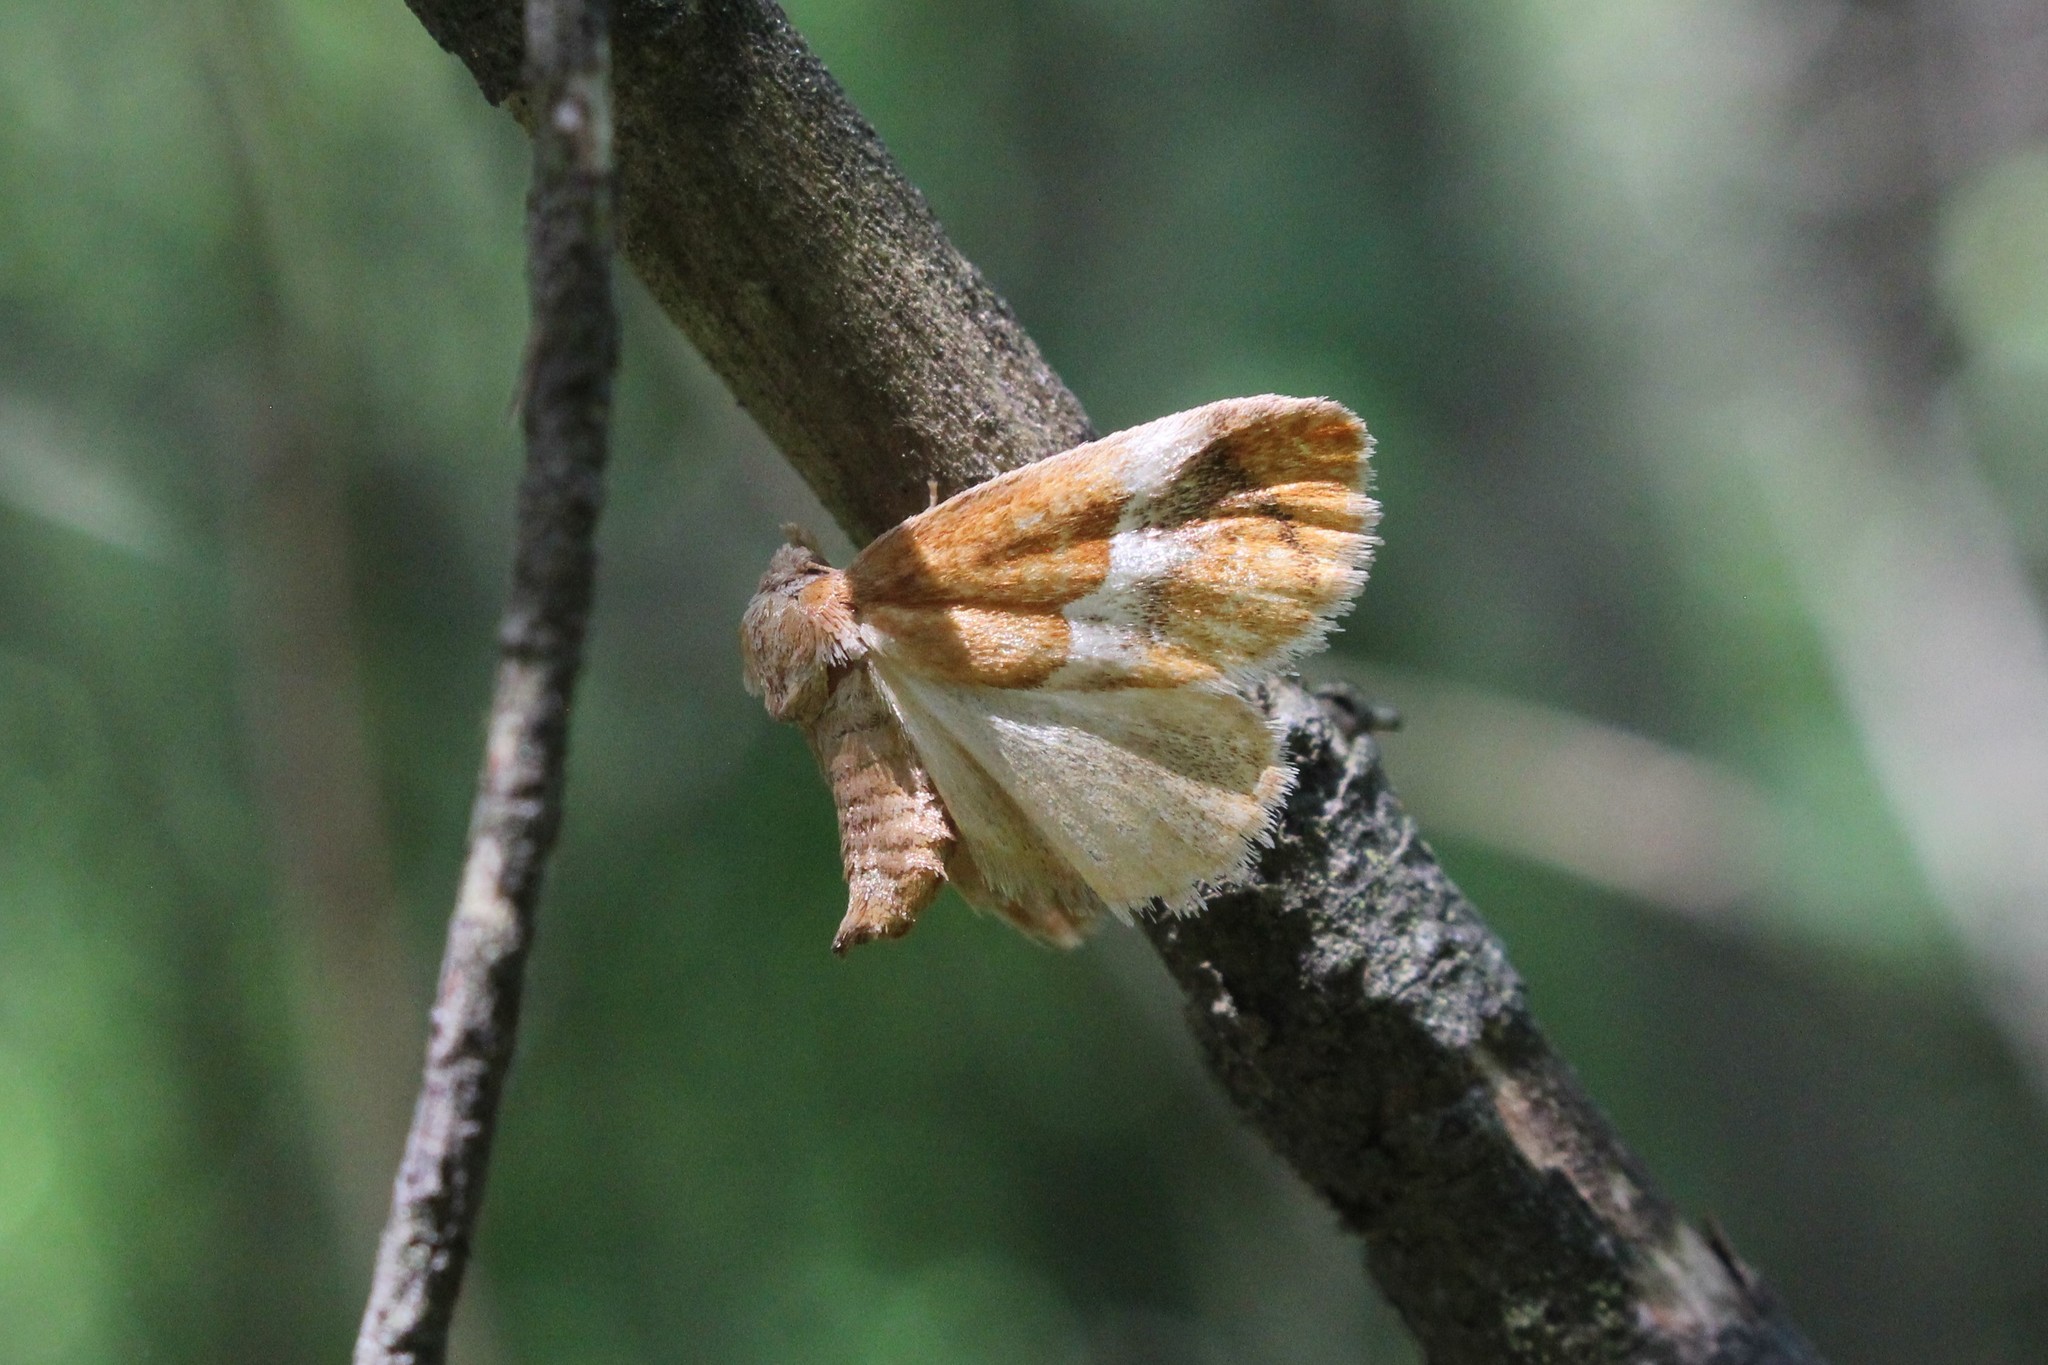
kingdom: Animalia
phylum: Arthropoda
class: Insecta
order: Lepidoptera
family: Limacodidae
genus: Lithacodes
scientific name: Lithacodes fasciola
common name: Yellow-shouldered slug moth
